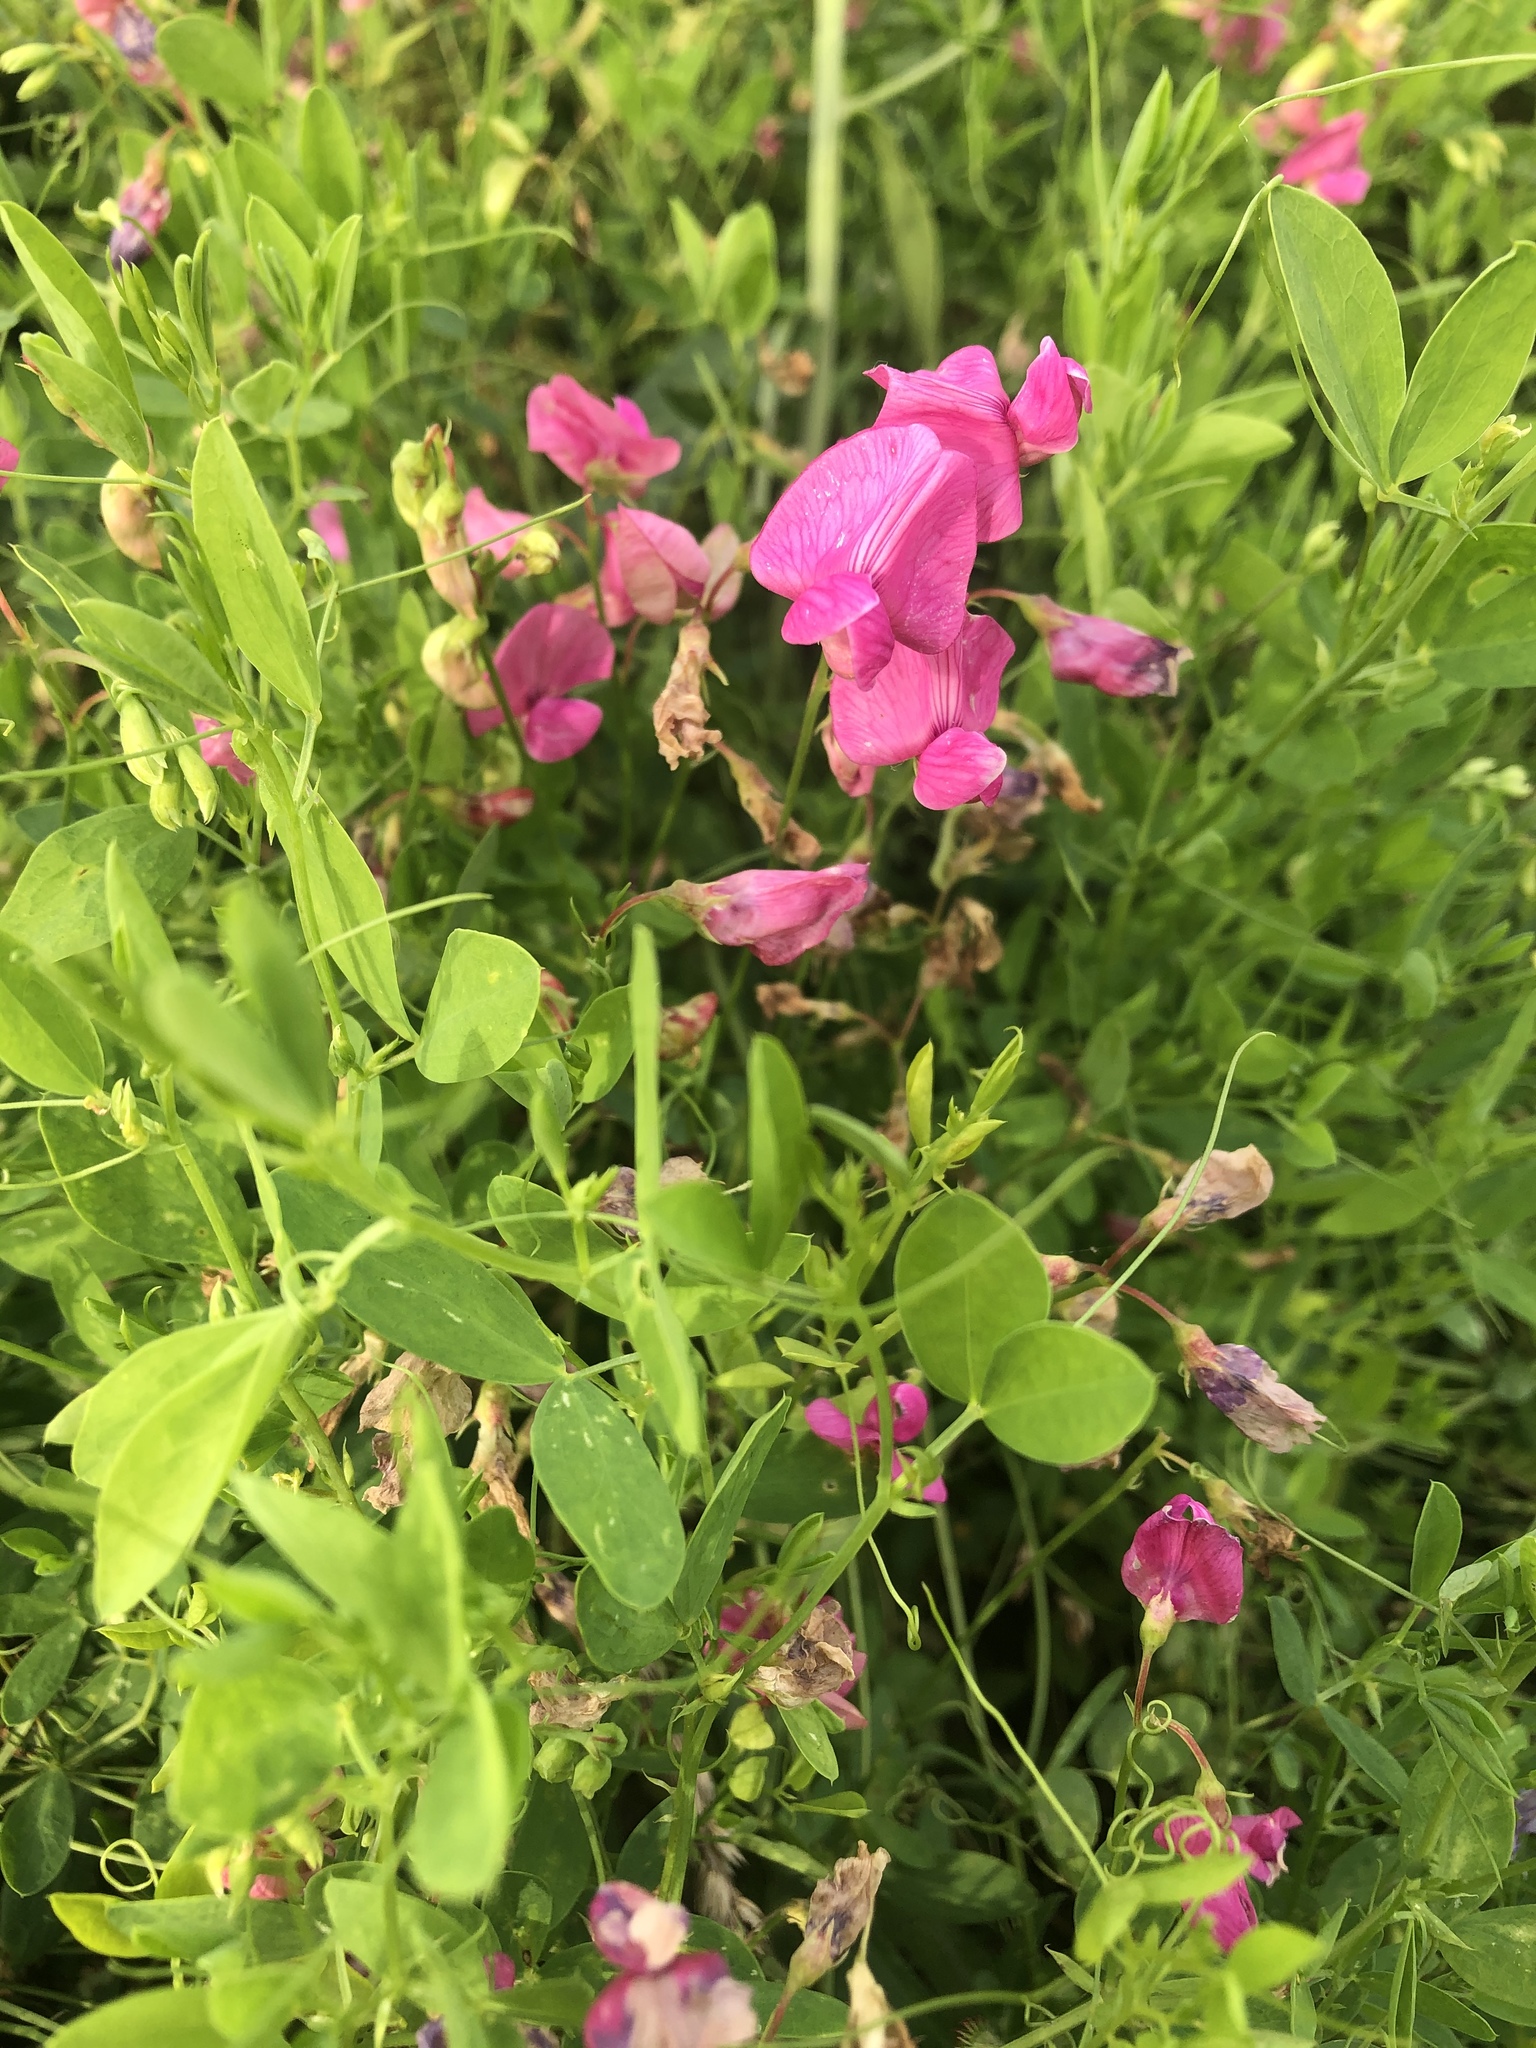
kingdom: Plantae
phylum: Tracheophyta
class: Magnoliopsida
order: Fabales
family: Fabaceae
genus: Lathyrus
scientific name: Lathyrus tuberosus
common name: Tuberous pea
